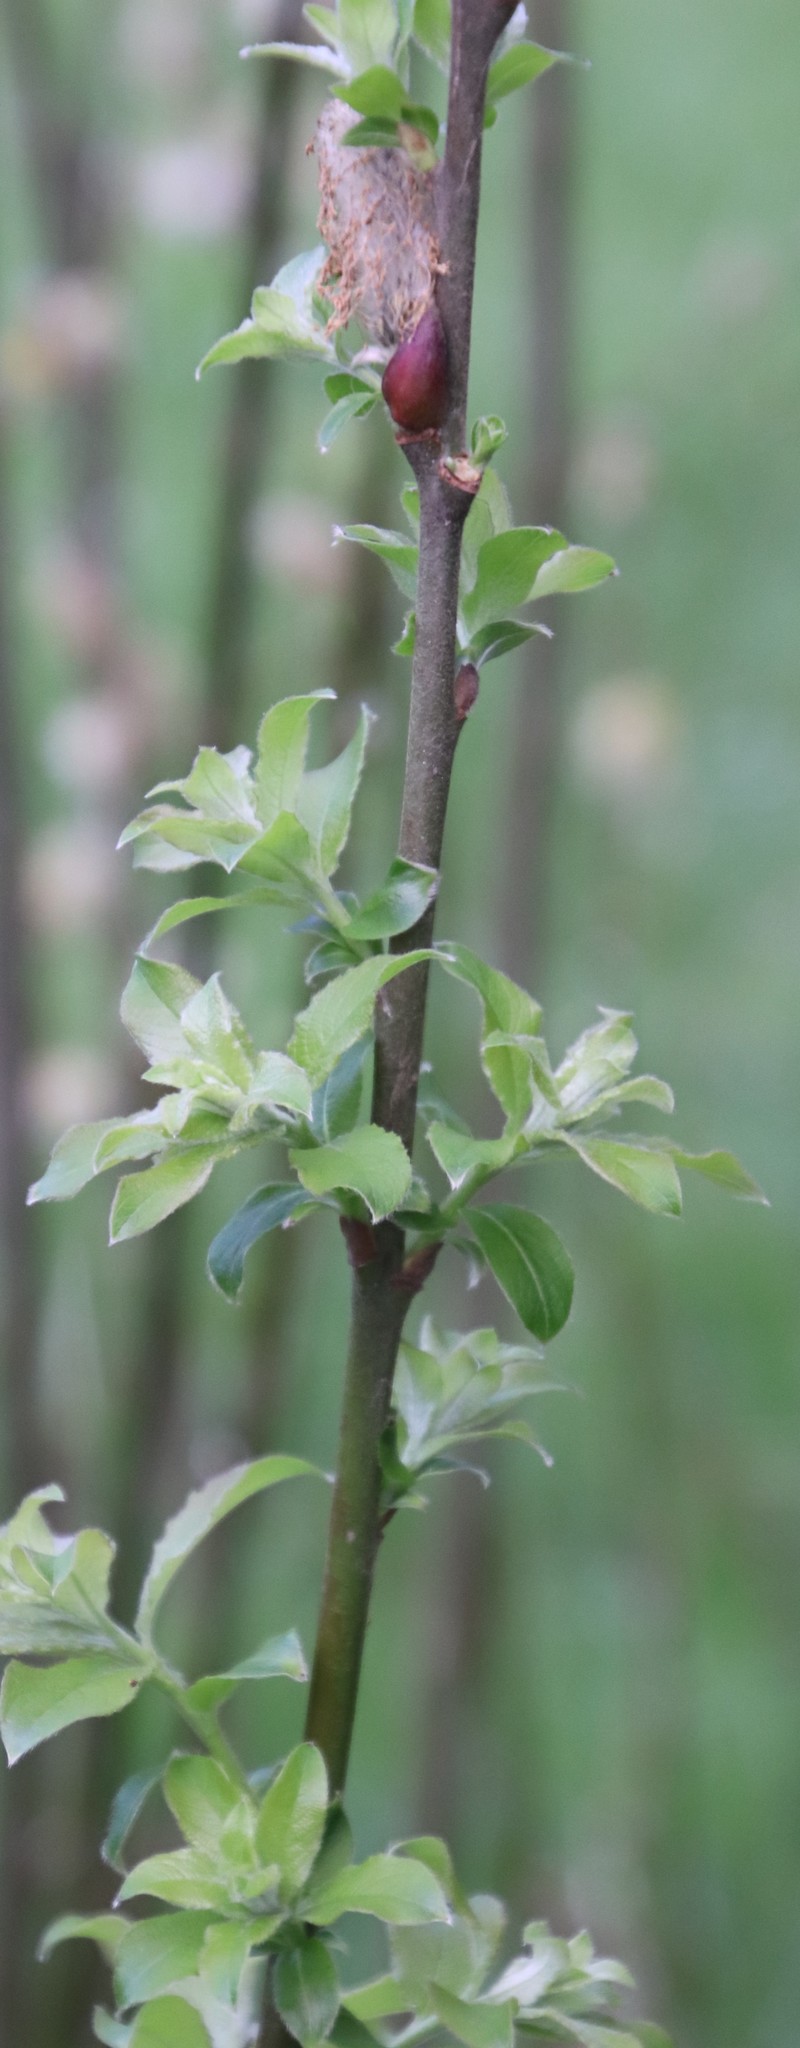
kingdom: Plantae
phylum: Tracheophyta
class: Magnoliopsida
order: Malpighiales
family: Salicaceae
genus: Salix
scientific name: Salix caprea
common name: Goat willow
